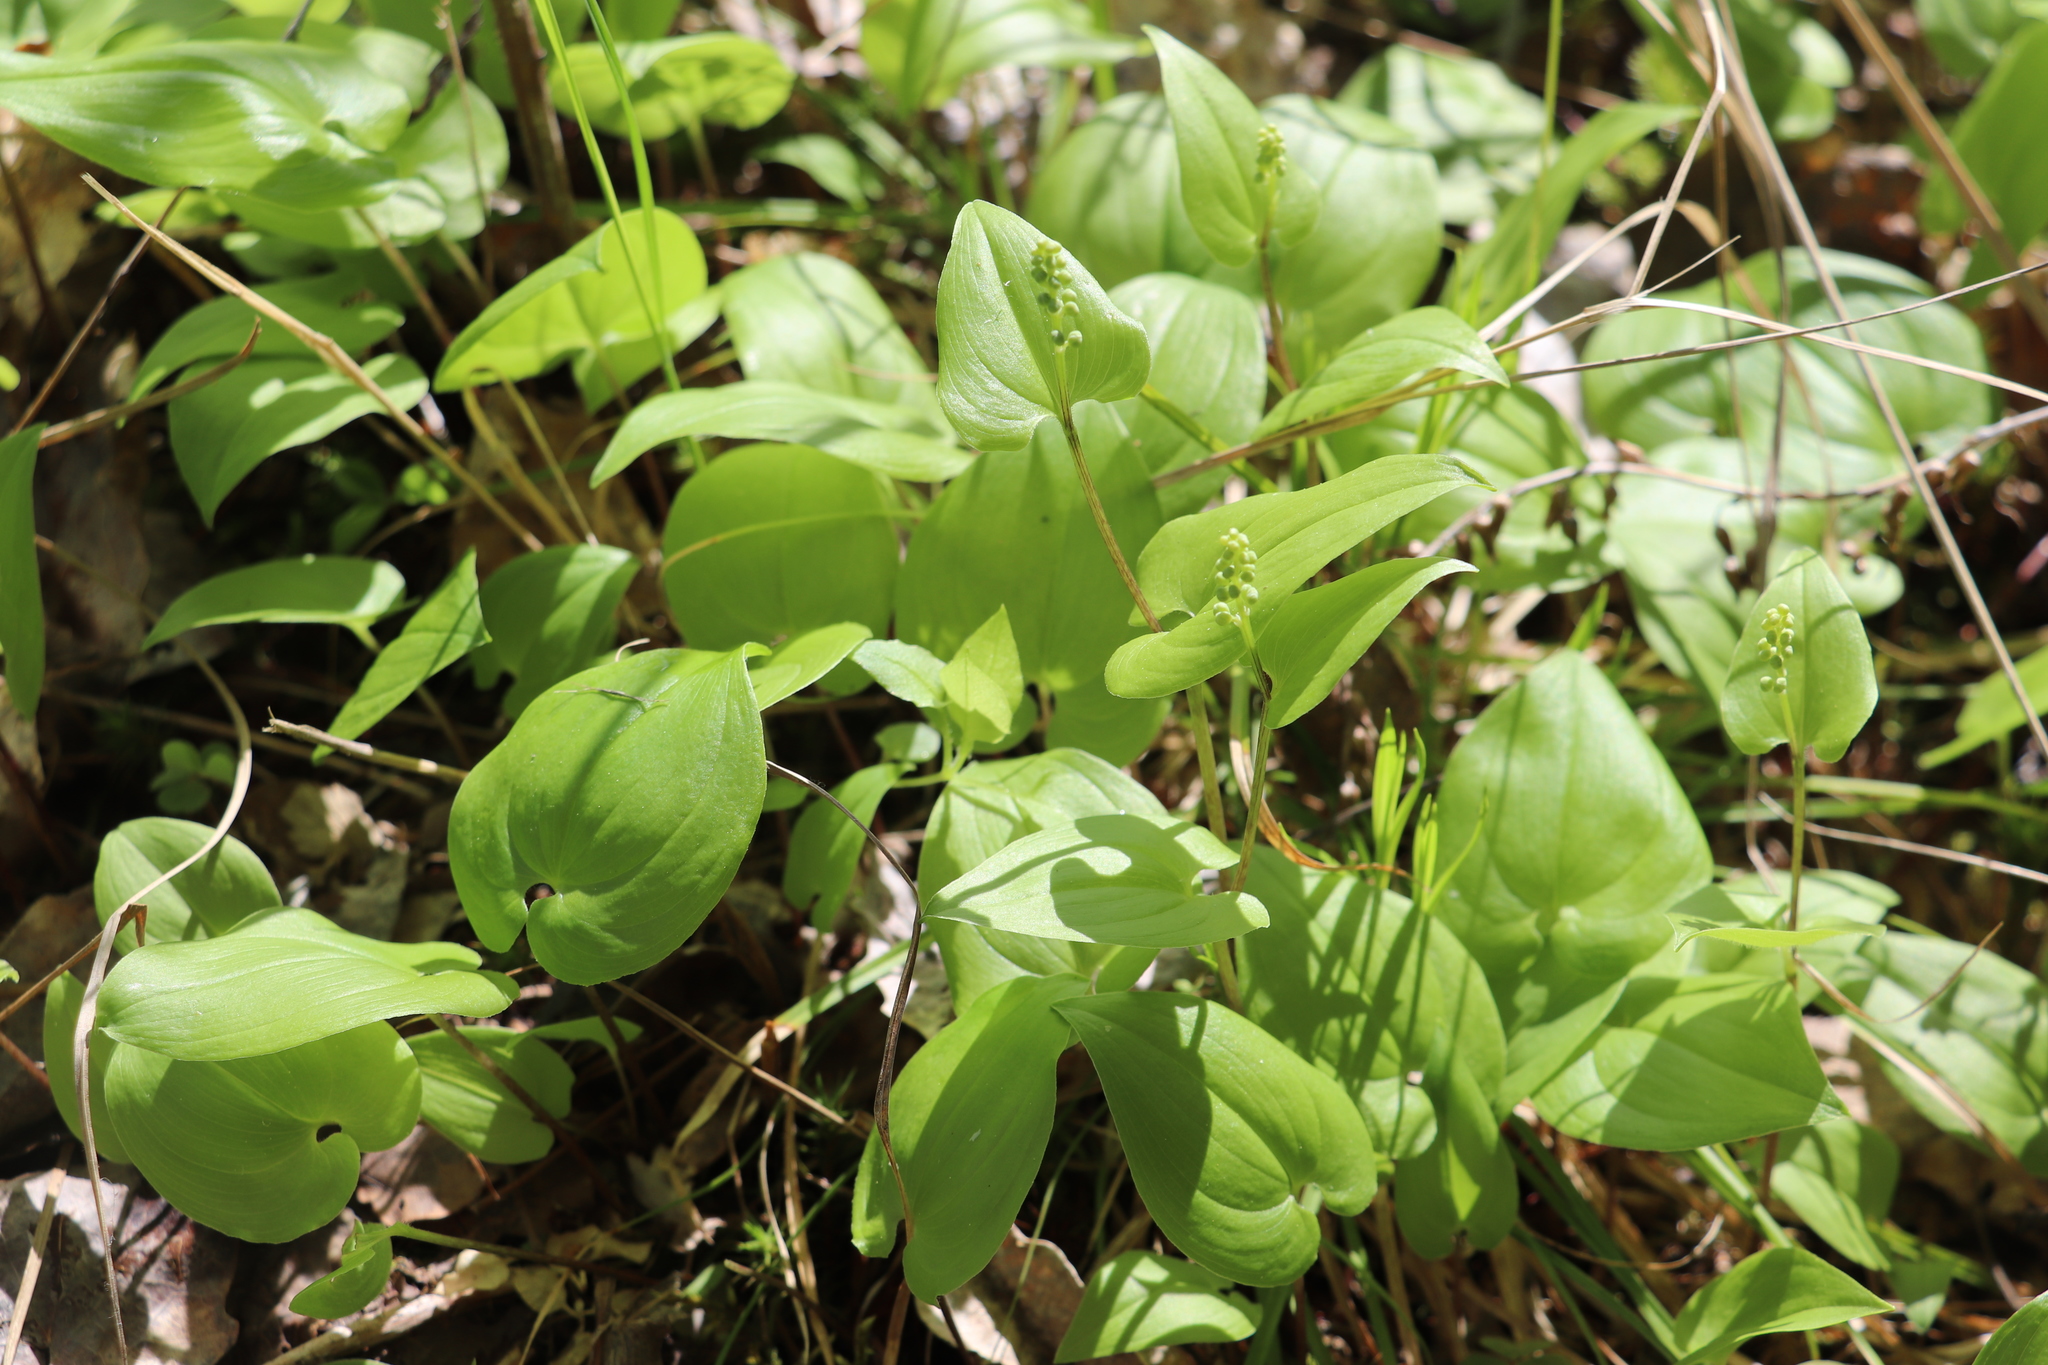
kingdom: Plantae
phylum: Tracheophyta
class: Liliopsida
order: Asparagales
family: Asparagaceae
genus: Maianthemum
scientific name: Maianthemum bifolium
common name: May lily
